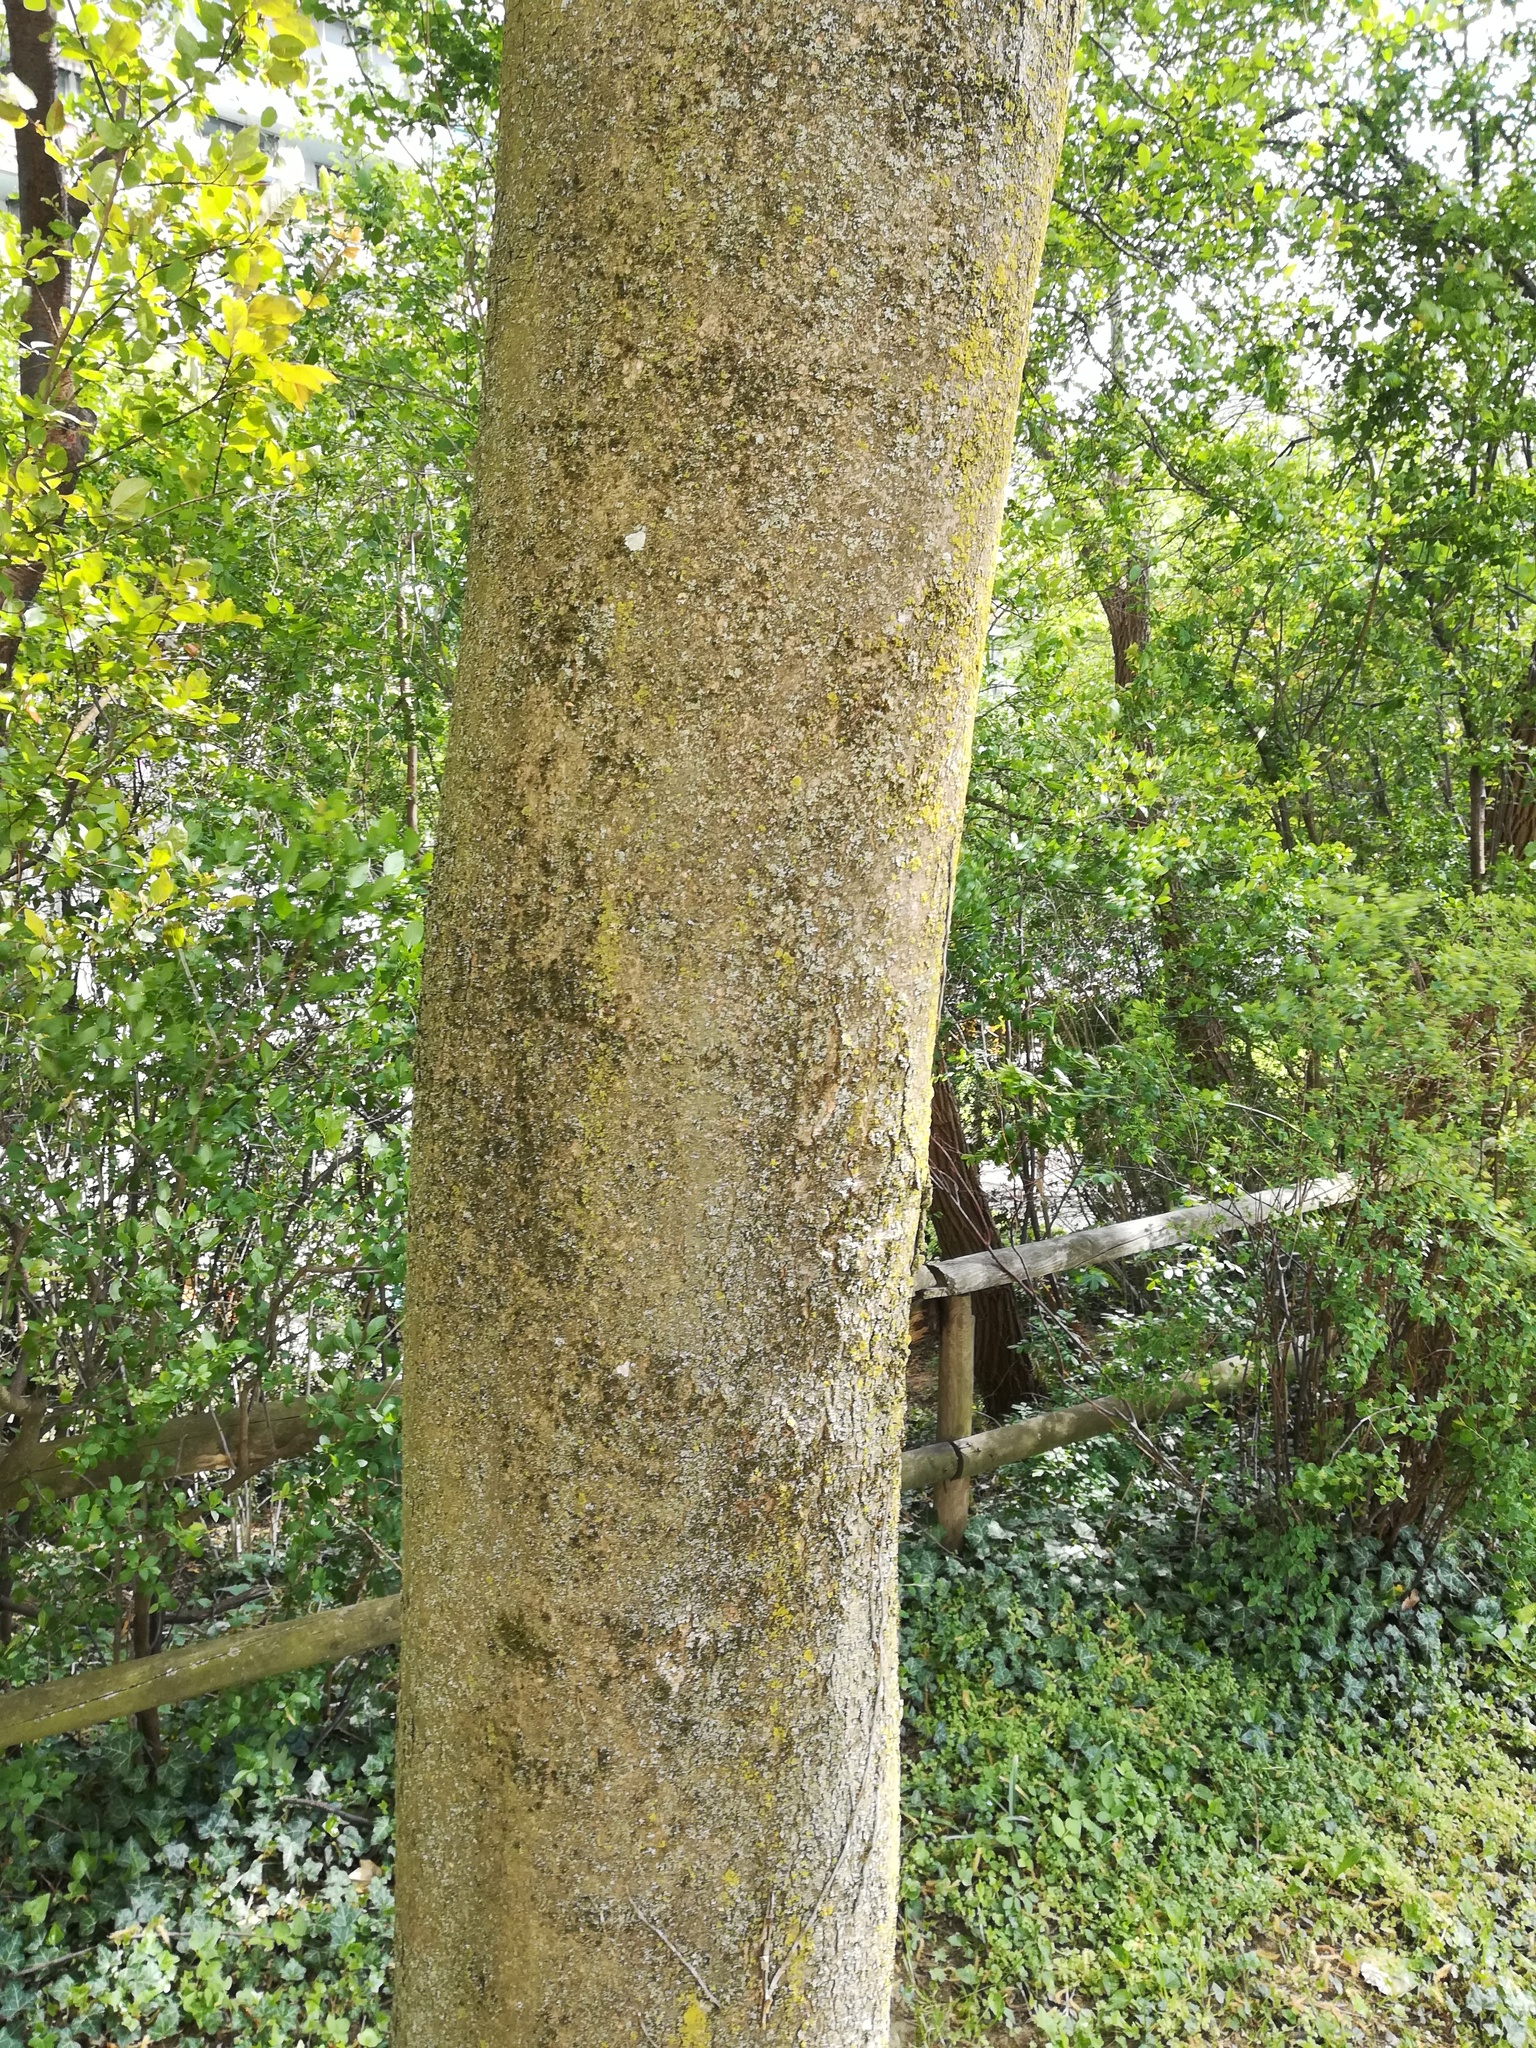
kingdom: Plantae
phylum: Tracheophyta
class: Magnoliopsida
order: Sapindales
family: Sapindaceae
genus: Acer
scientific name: Acer pseudoplatanus
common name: Sycamore
